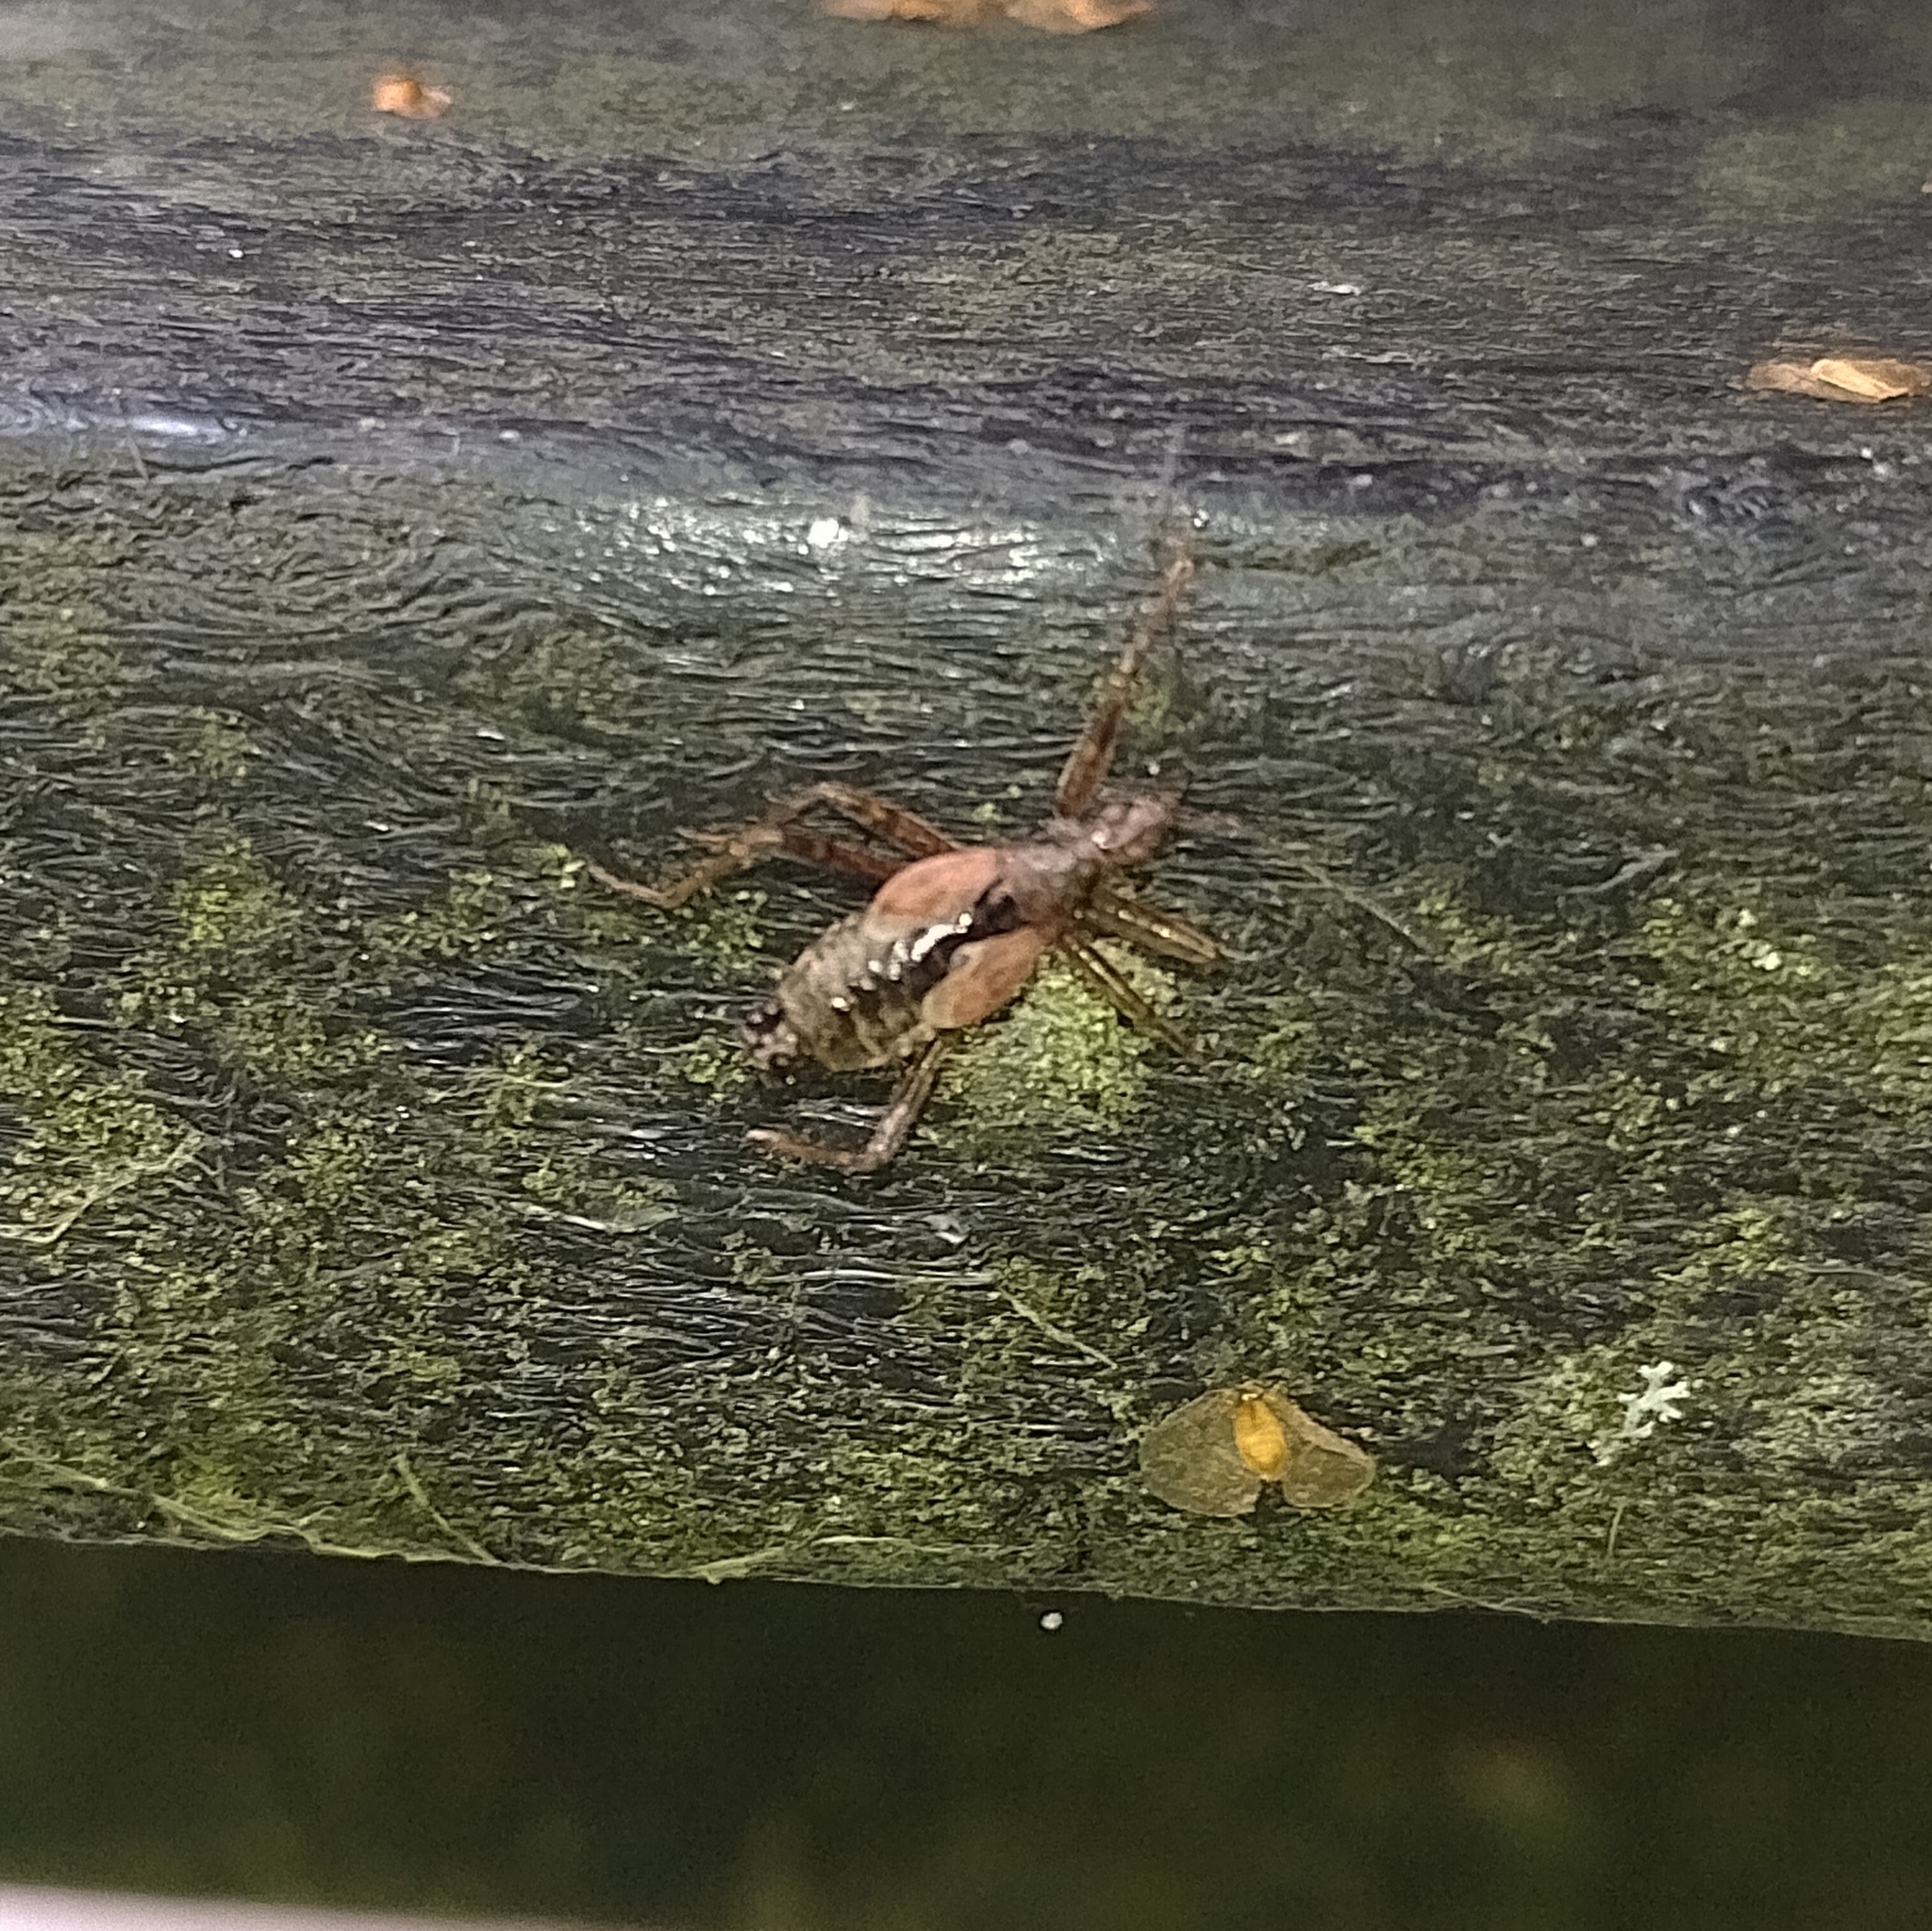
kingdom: Animalia
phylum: Arthropoda
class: Insecta
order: Hemiptera
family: Nabidae
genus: Himacerus
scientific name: Himacerus apterus
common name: Tree damsel bug
